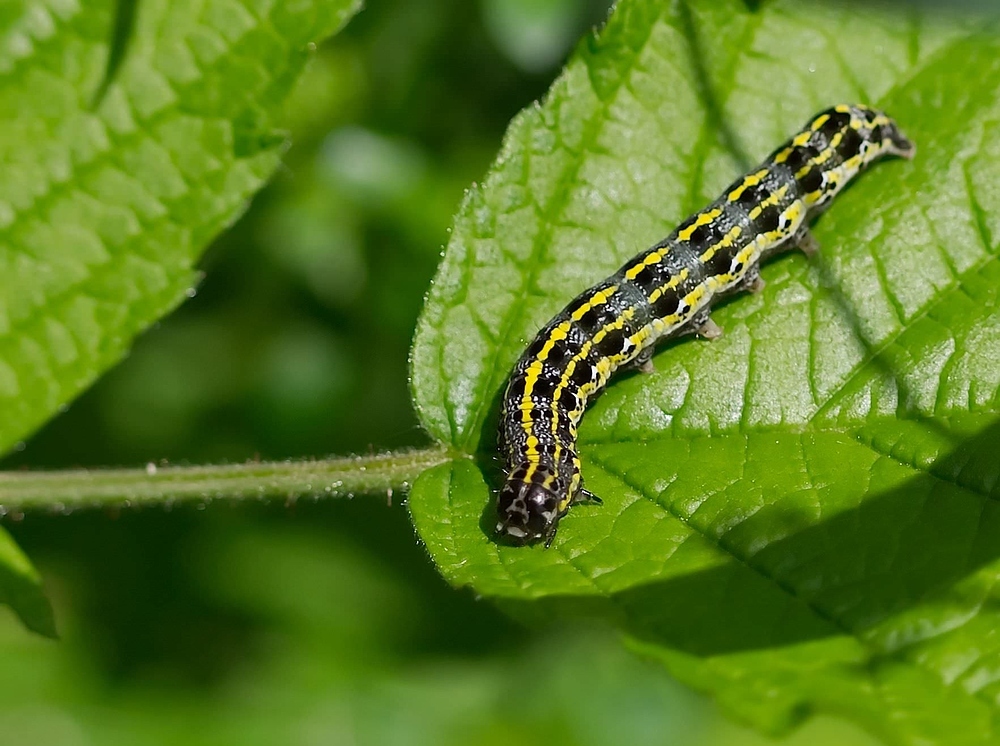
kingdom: Animalia
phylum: Arthropoda
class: Insecta
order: Lepidoptera
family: Noctuidae
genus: Orthosia
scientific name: Orthosia miniosa
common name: Blossom underwing
